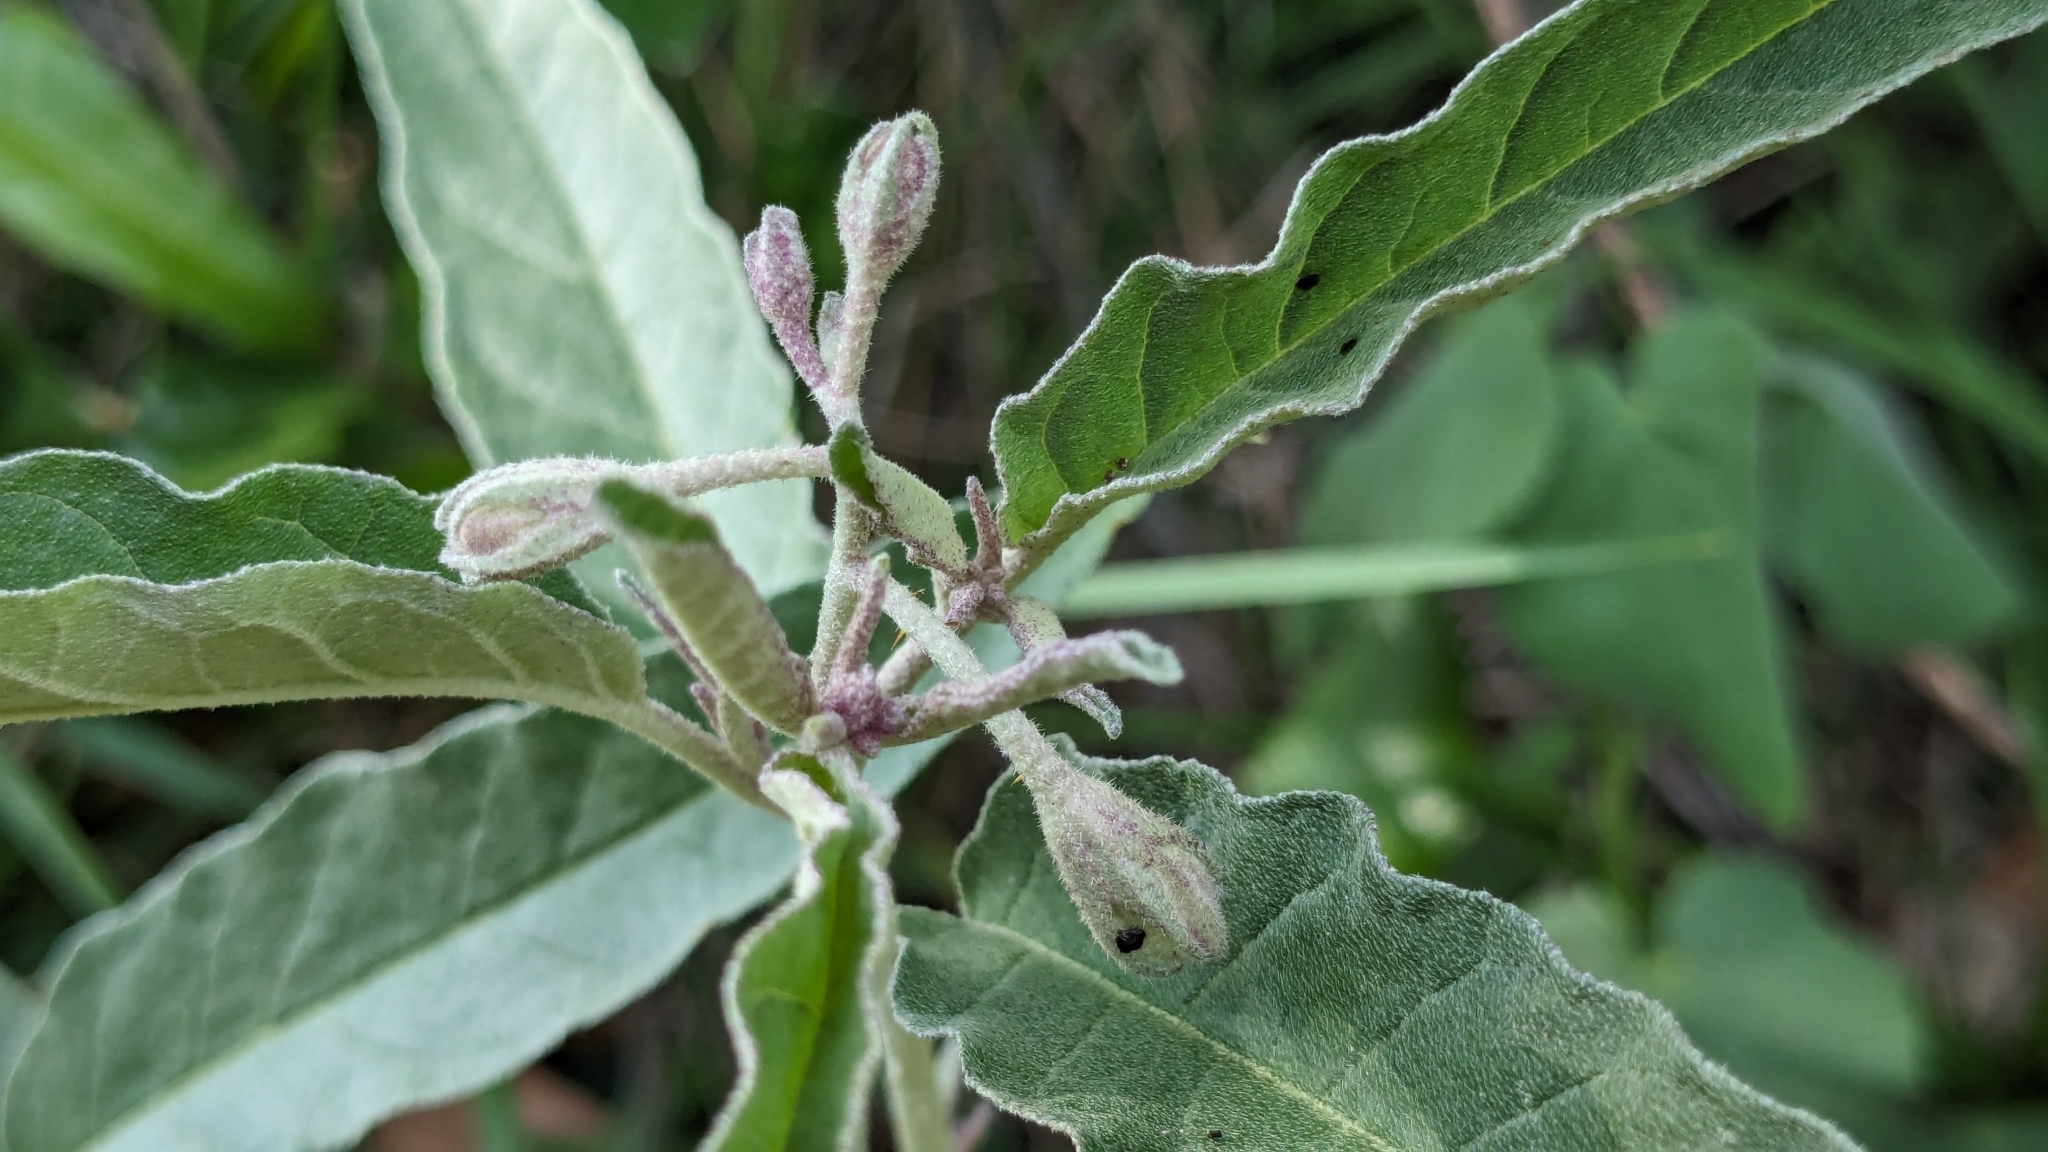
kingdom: Plantae
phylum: Tracheophyta
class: Magnoliopsida
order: Solanales
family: Solanaceae
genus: Solanum
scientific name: Solanum elaeagnifolium
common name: Silverleaf nightshade
